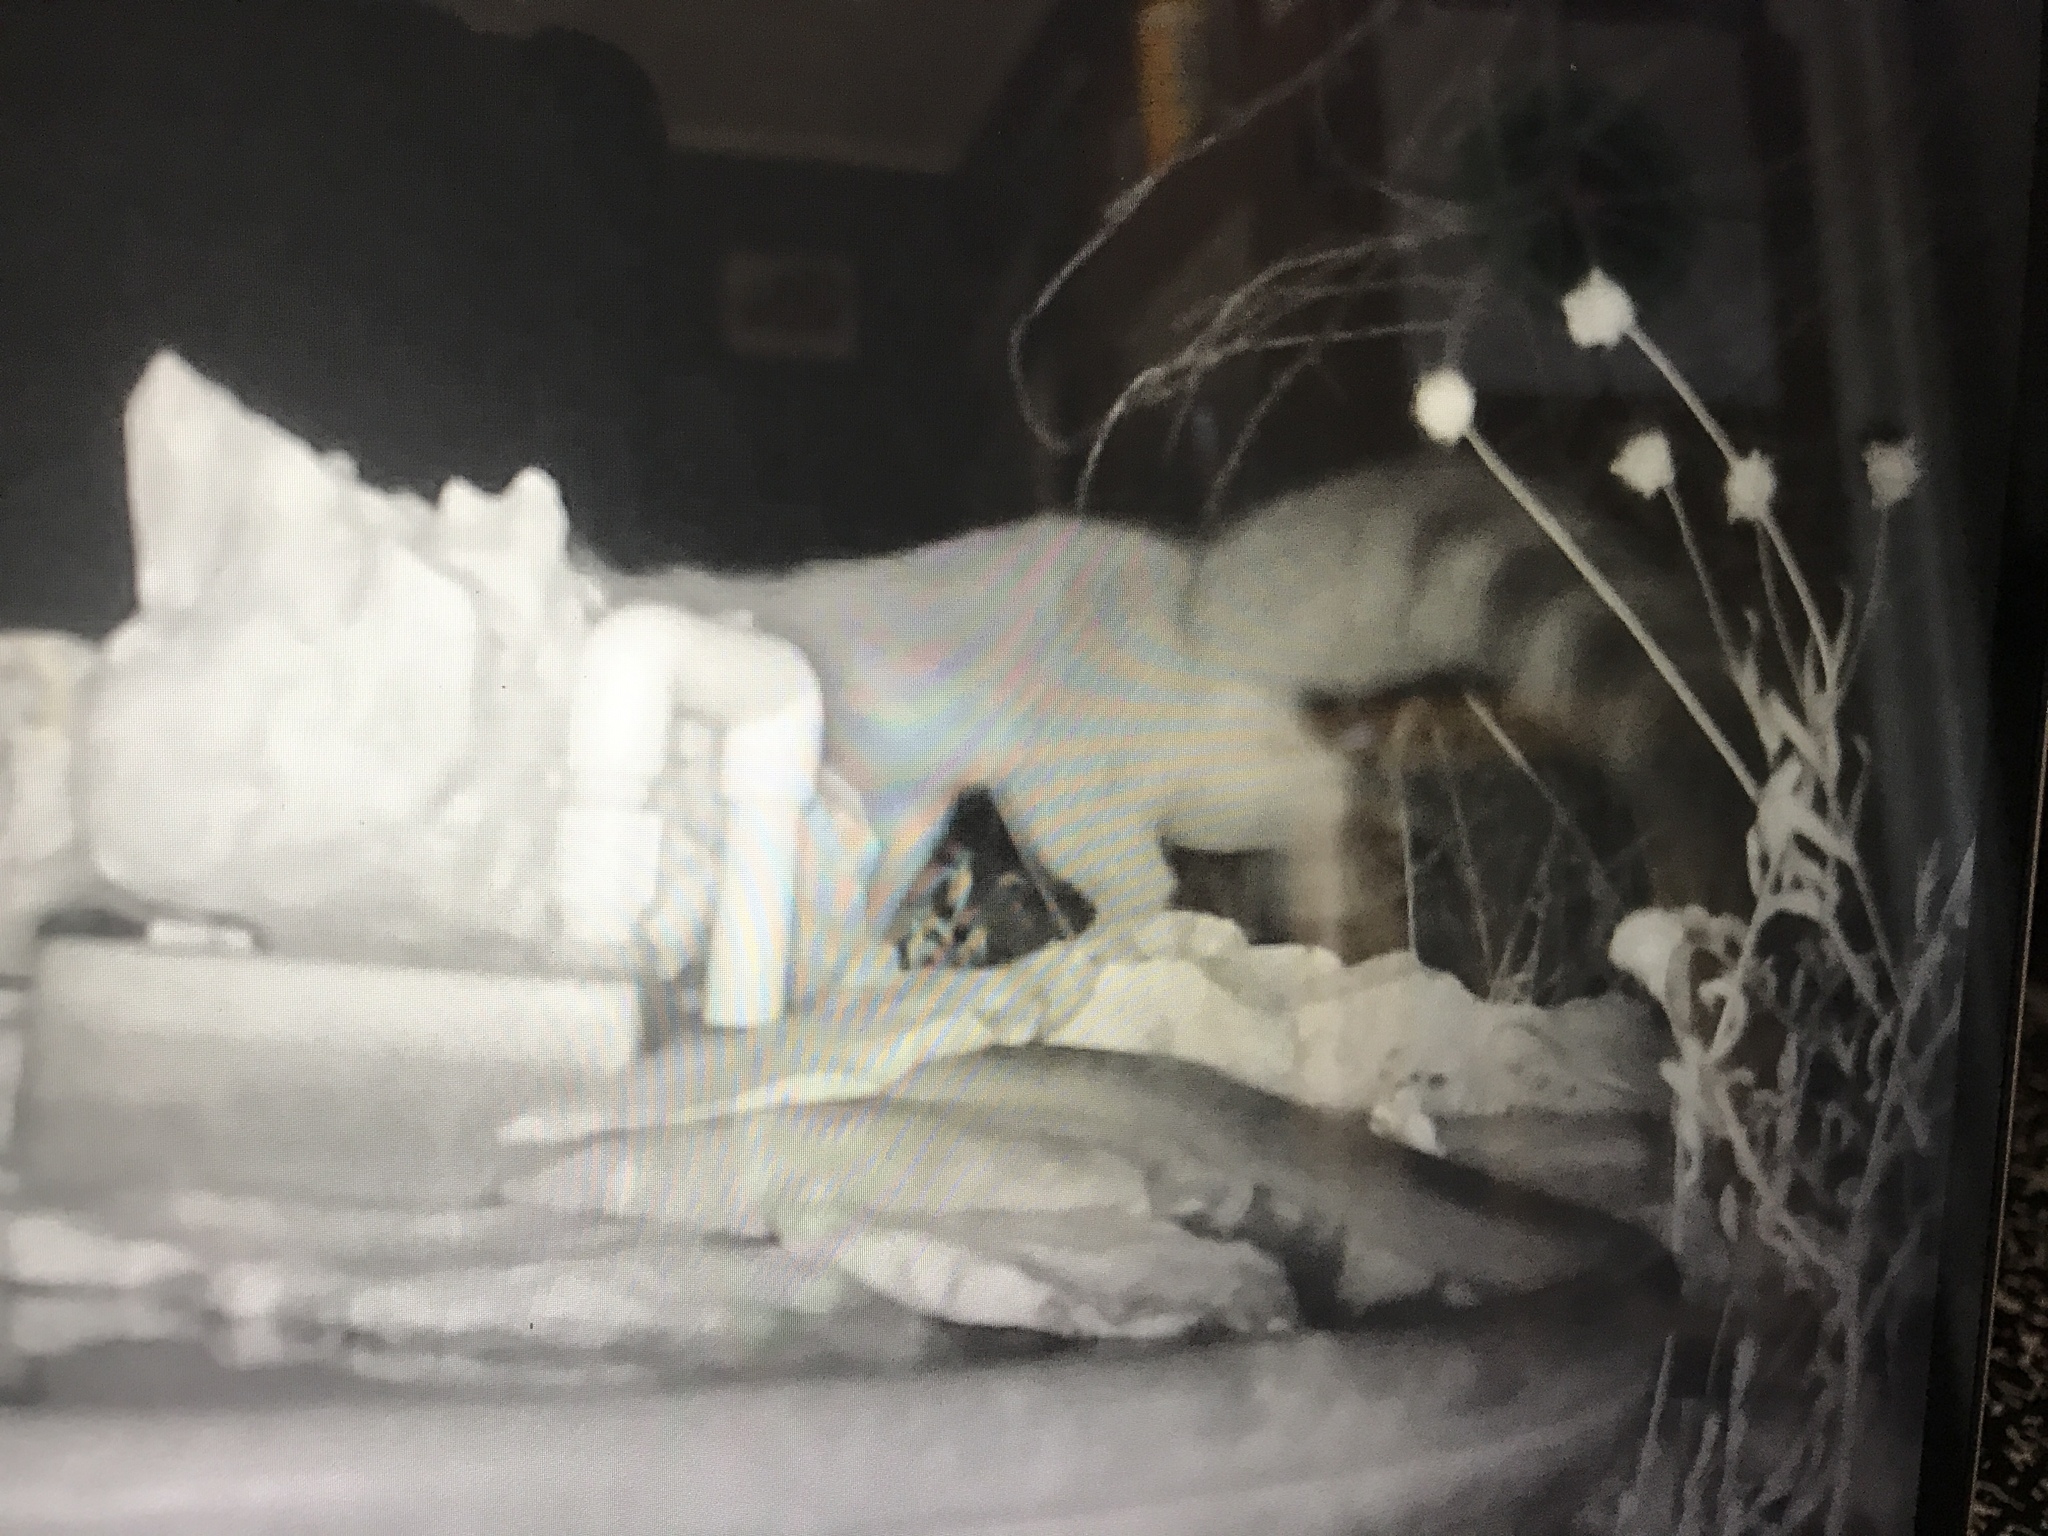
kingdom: Animalia
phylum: Chordata
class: Mammalia
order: Carnivora
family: Procyonidae
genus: Bassariscus
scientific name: Bassariscus astutus
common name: Ringtail
